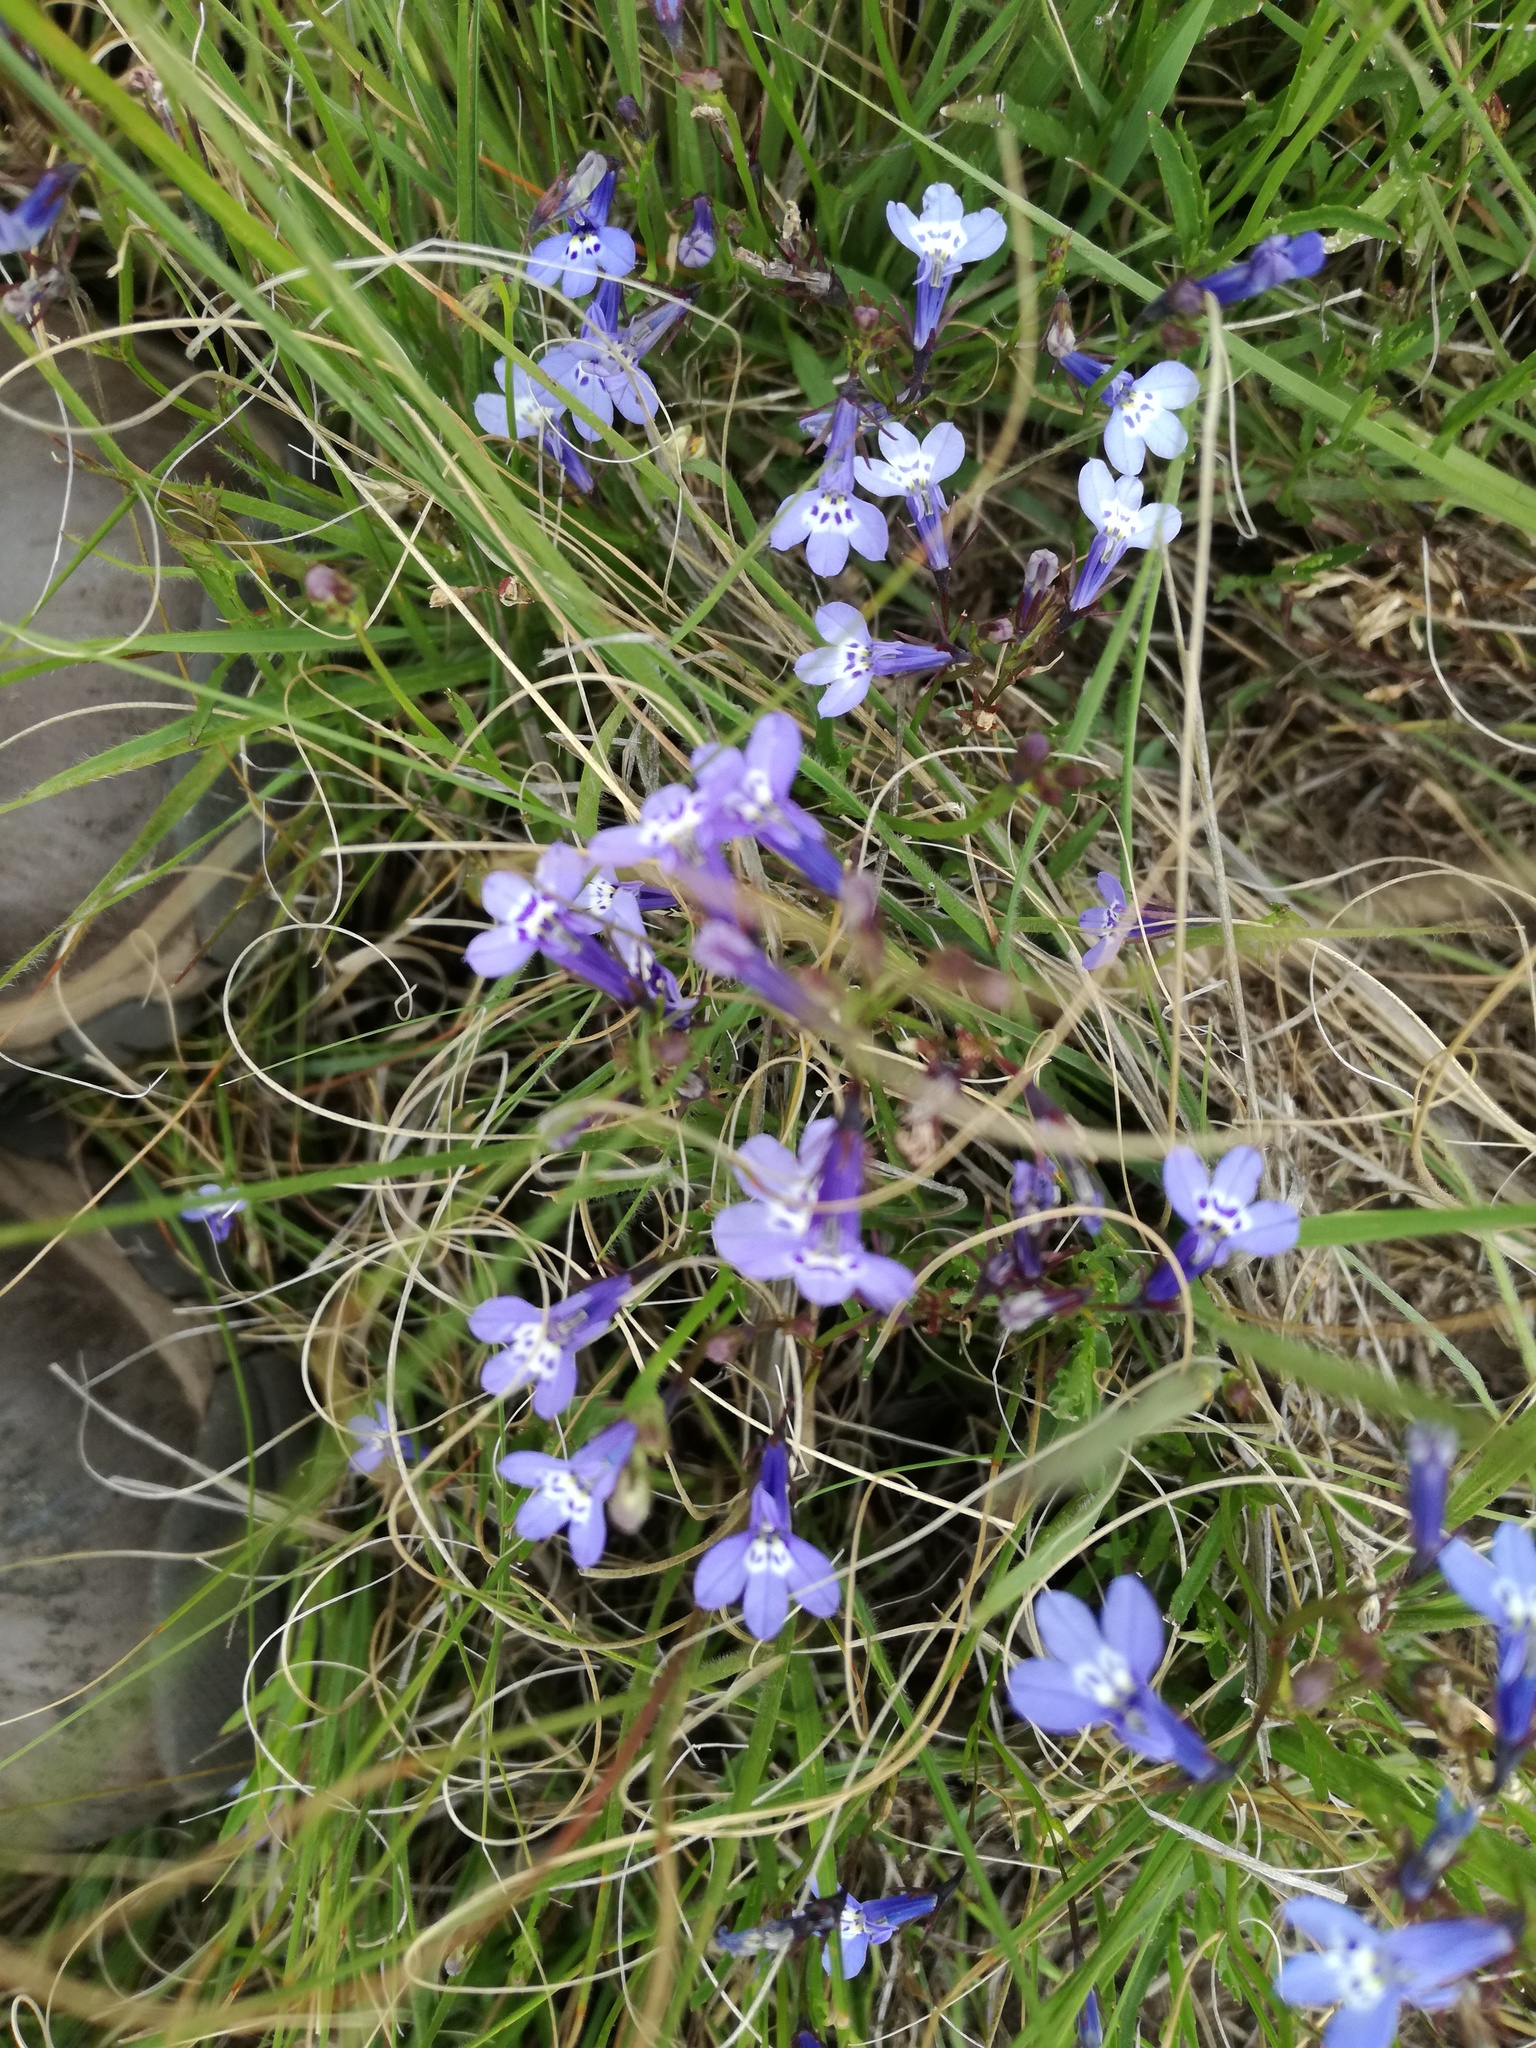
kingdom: Plantae
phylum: Tracheophyta
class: Magnoliopsida
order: Asterales
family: Campanulaceae
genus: Lobelia
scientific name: Lobelia flaccida
